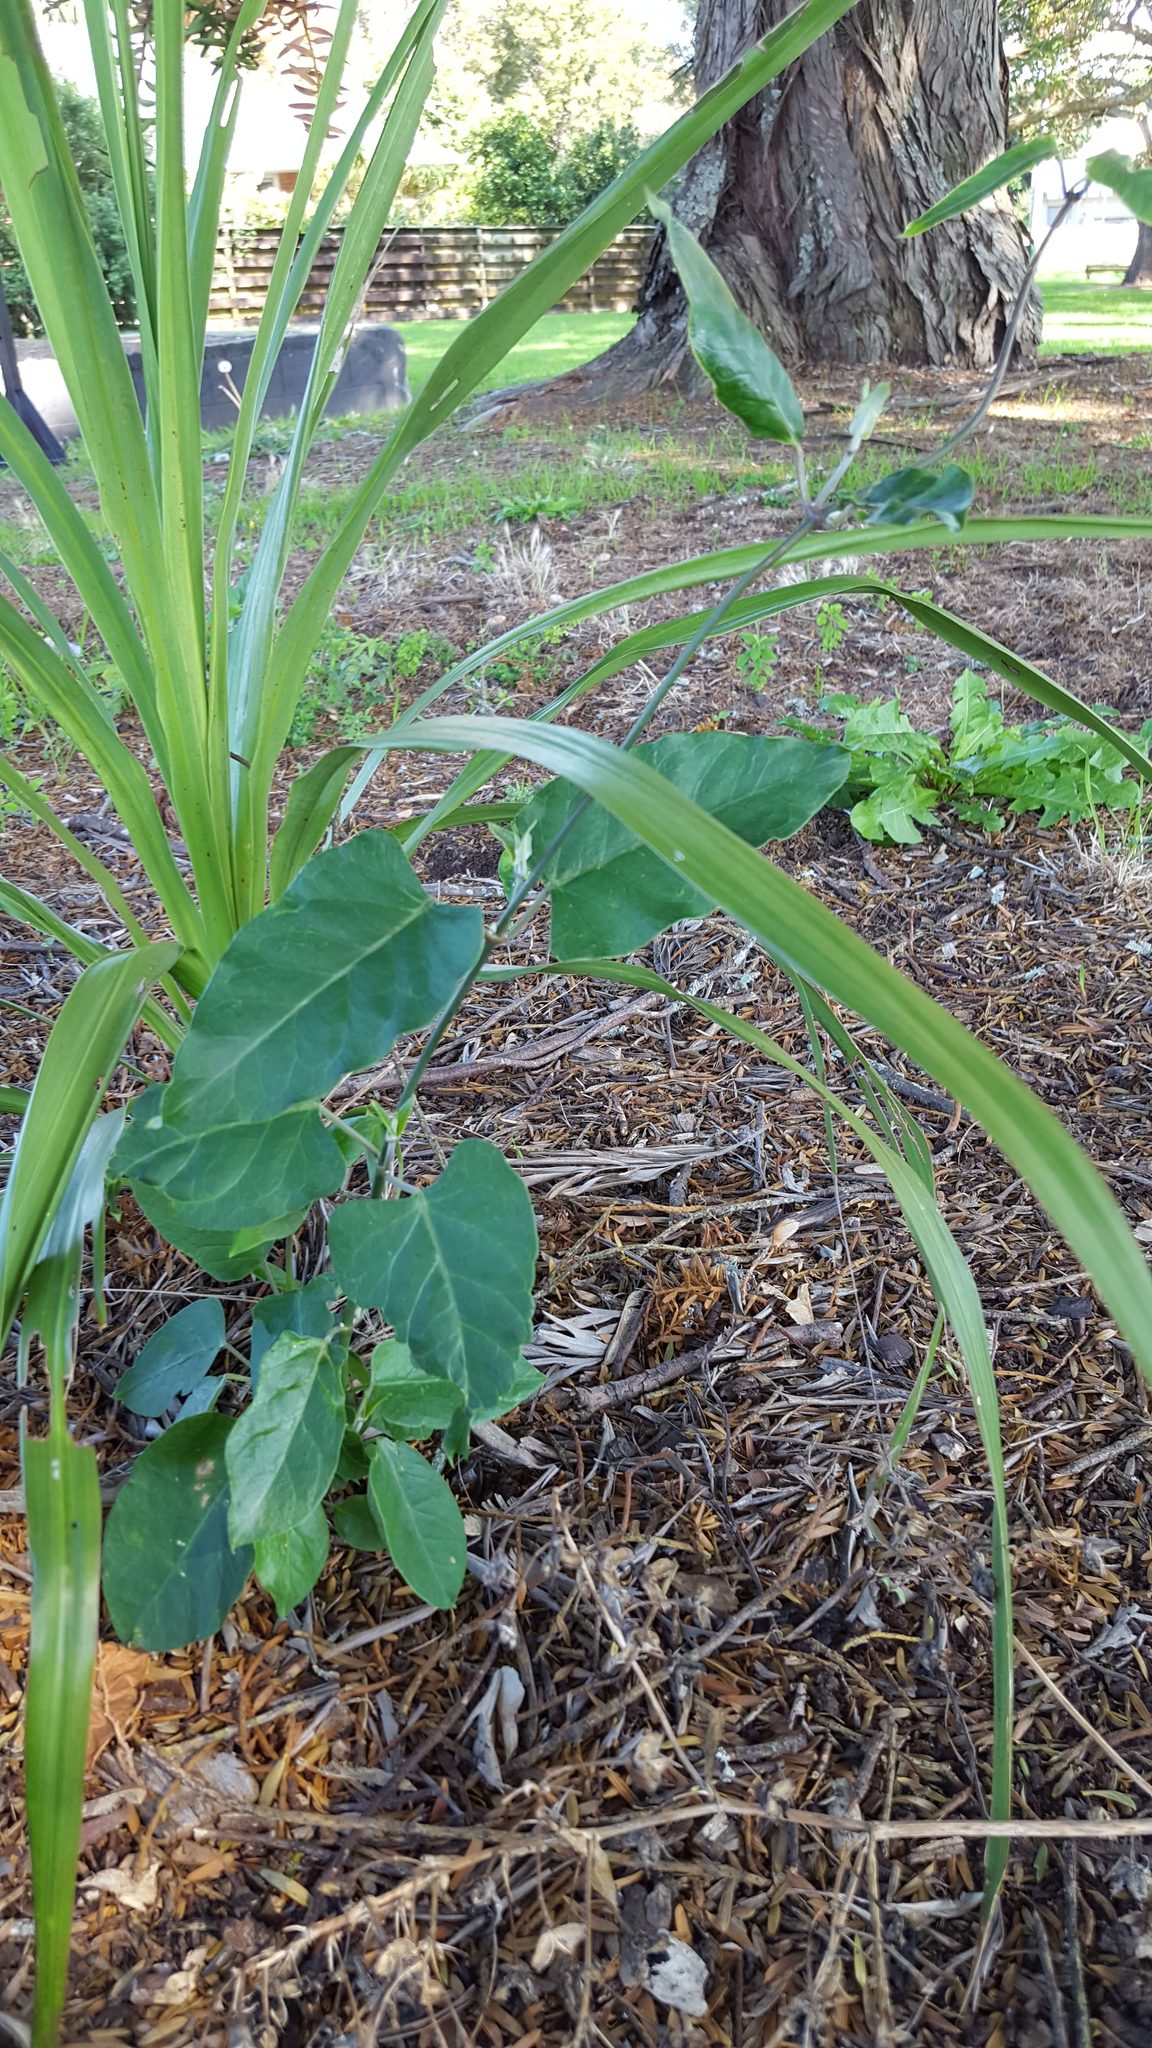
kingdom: Plantae
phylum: Tracheophyta
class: Magnoliopsida
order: Gentianales
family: Apocynaceae
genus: Araujia
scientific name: Araujia sericifera
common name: White bladderflower
